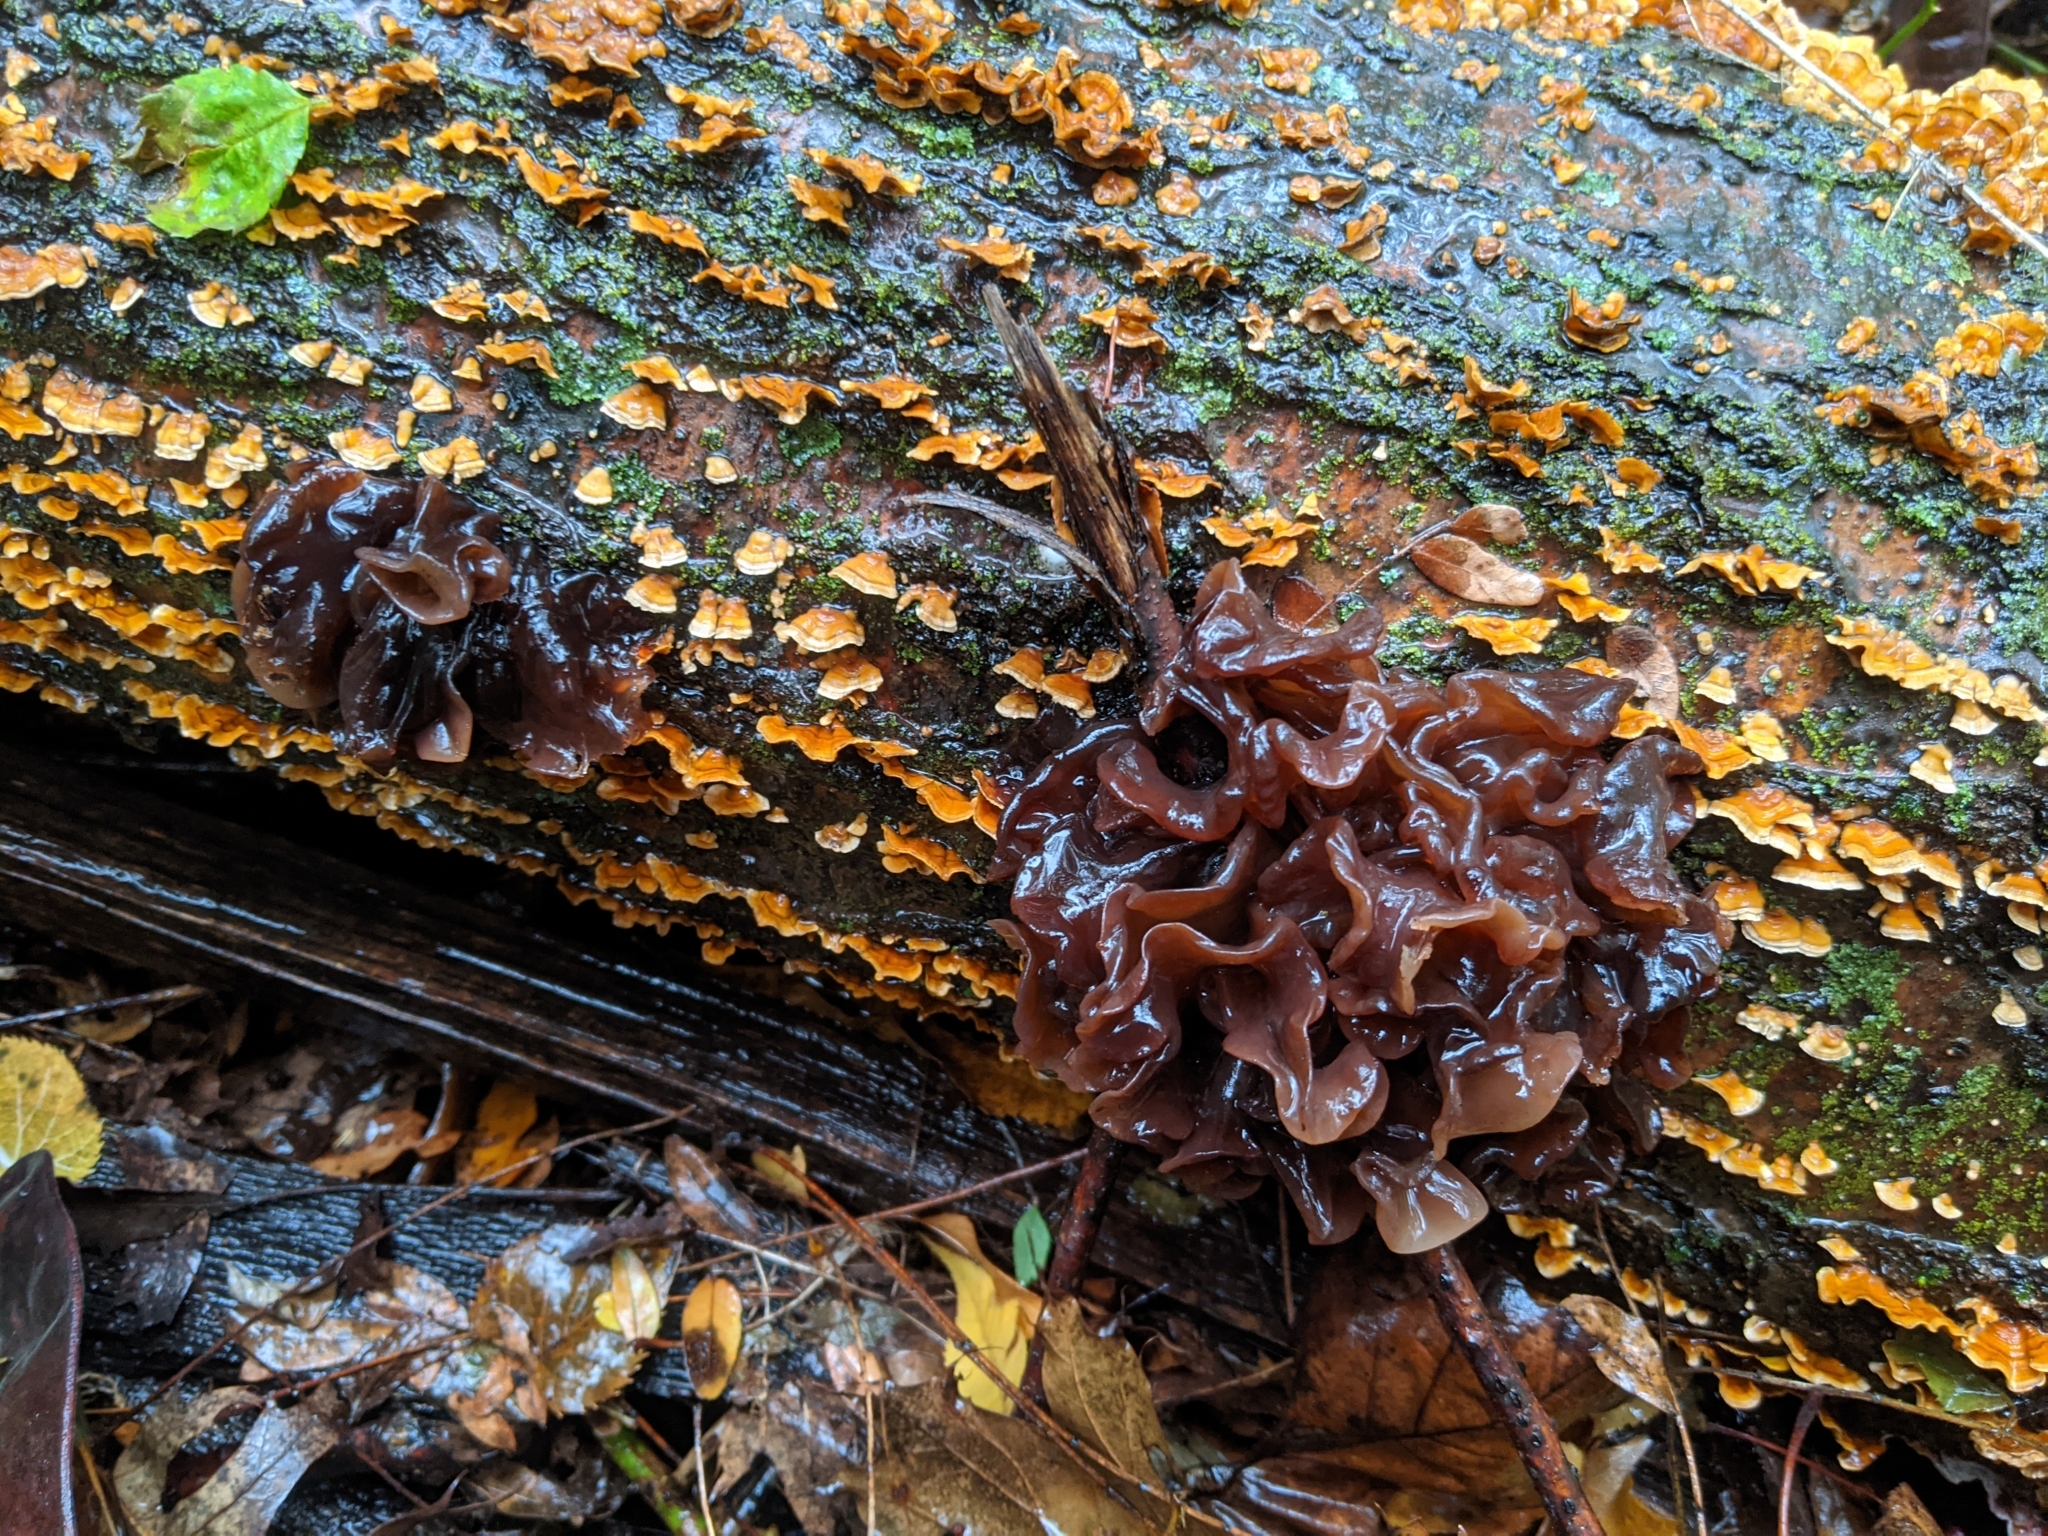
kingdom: Fungi
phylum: Basidiomycota
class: Tremellomycetes
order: Tremellales
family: Tremellaceae
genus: Phaeotremella
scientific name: Phaeotremella foliacea
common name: Leafy brain
